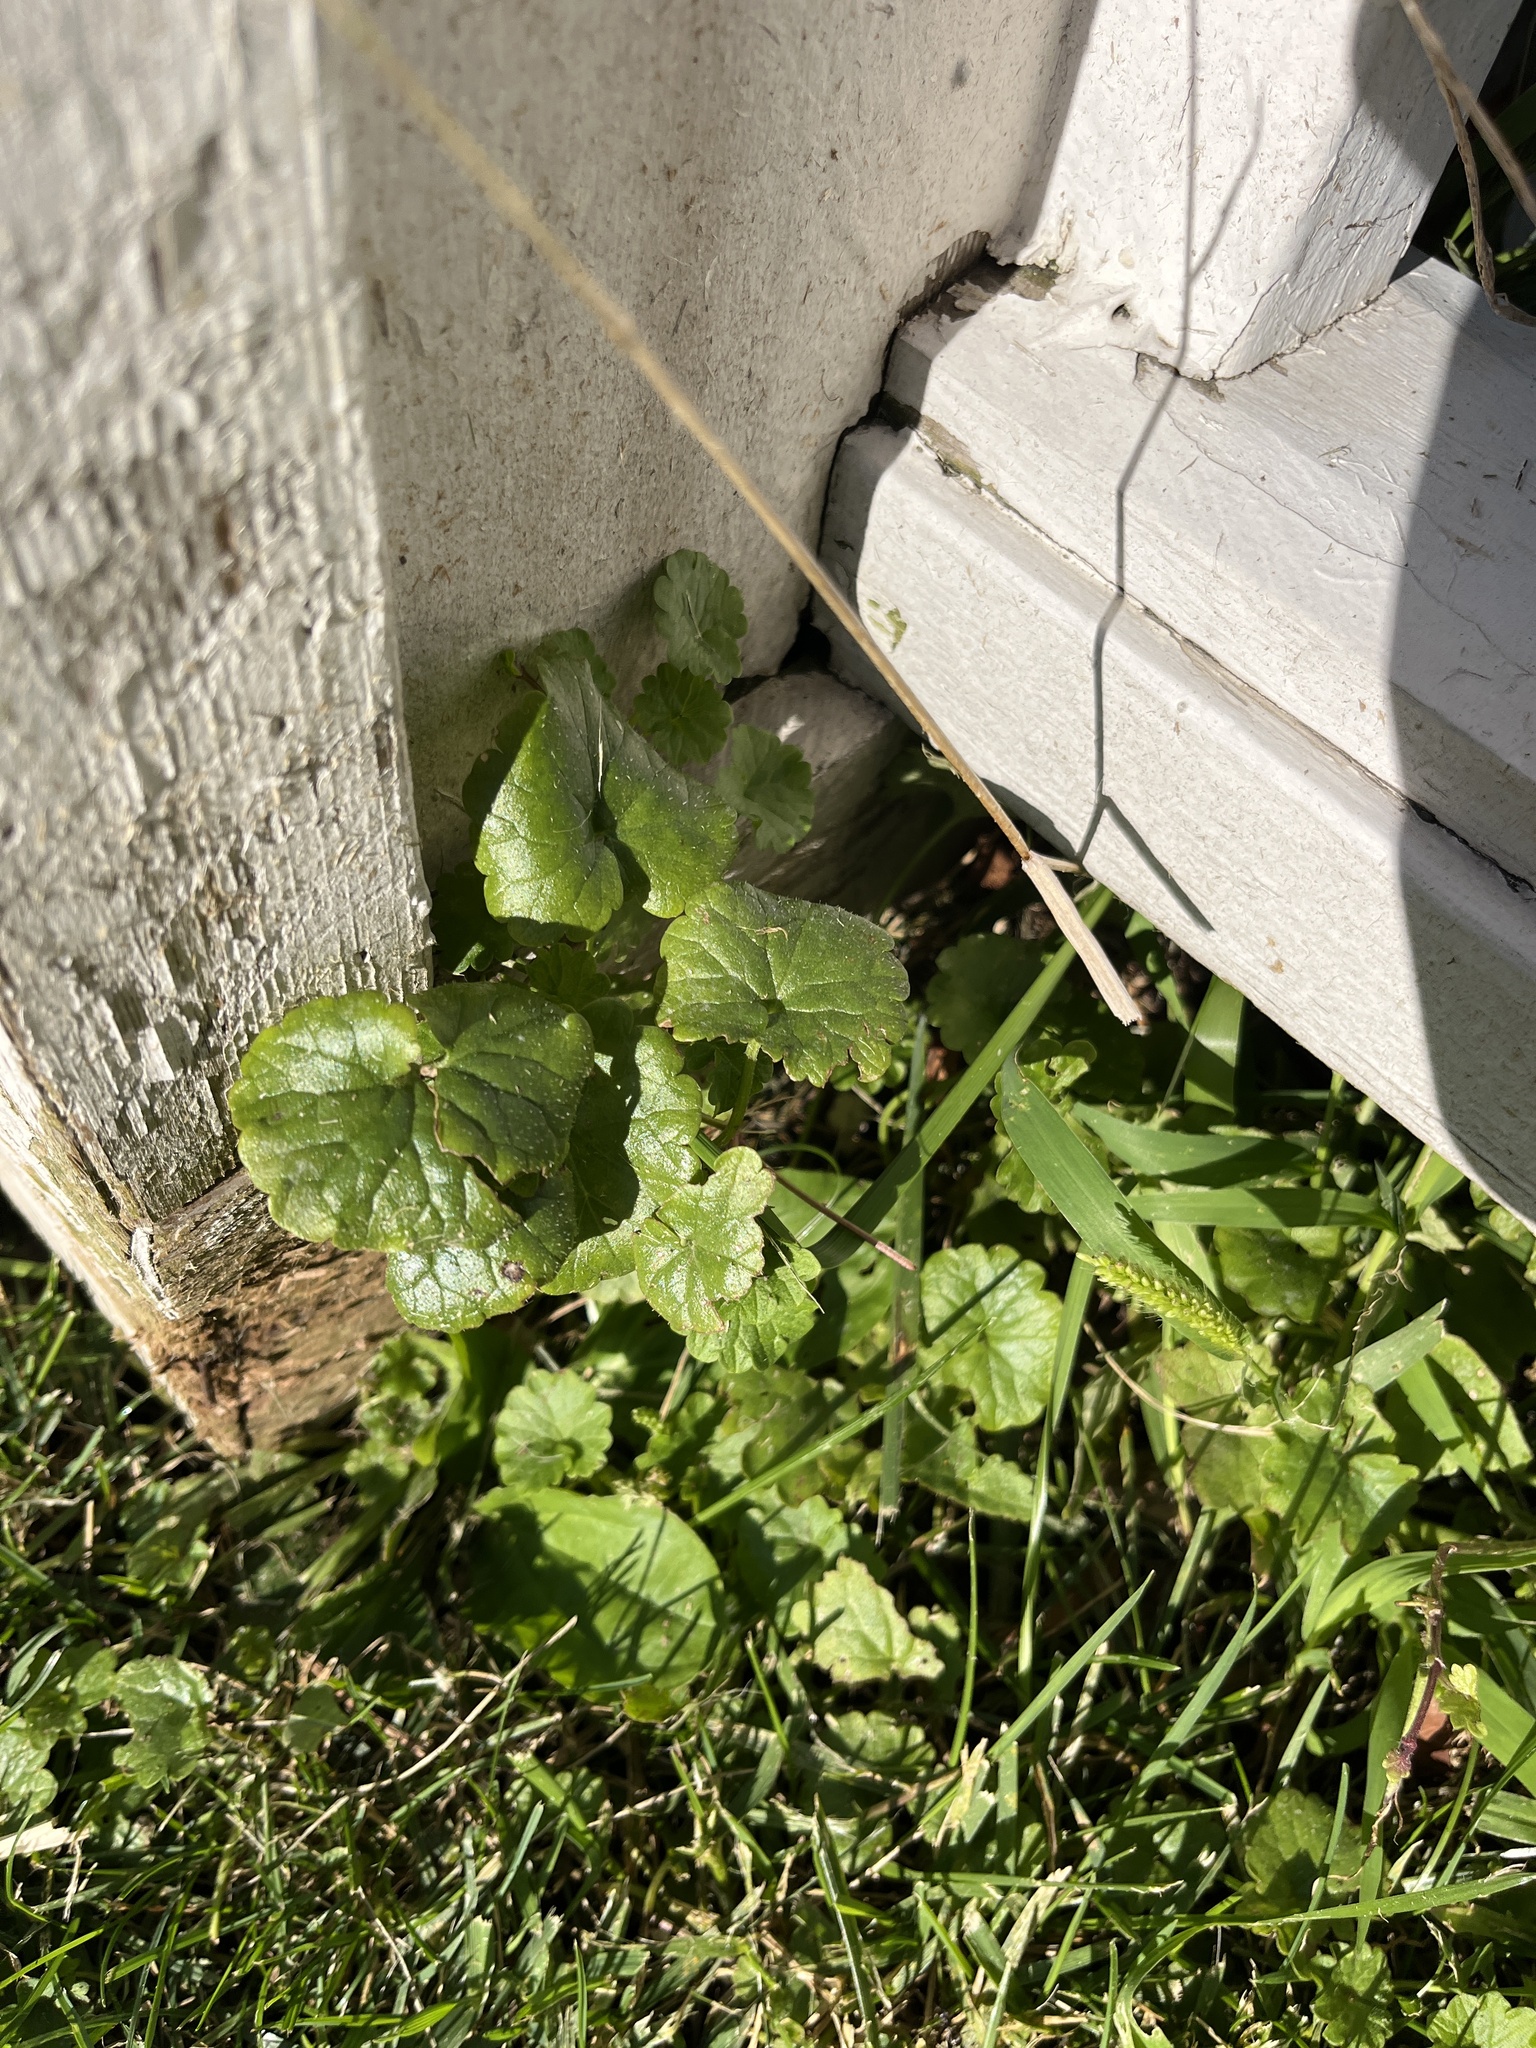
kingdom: Plantae
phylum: Tracheophyta
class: Magnoliopsida
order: Lamiales
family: Lamiaceae
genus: Glechoma
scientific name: Glechoma hederacea
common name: Ground ivy
